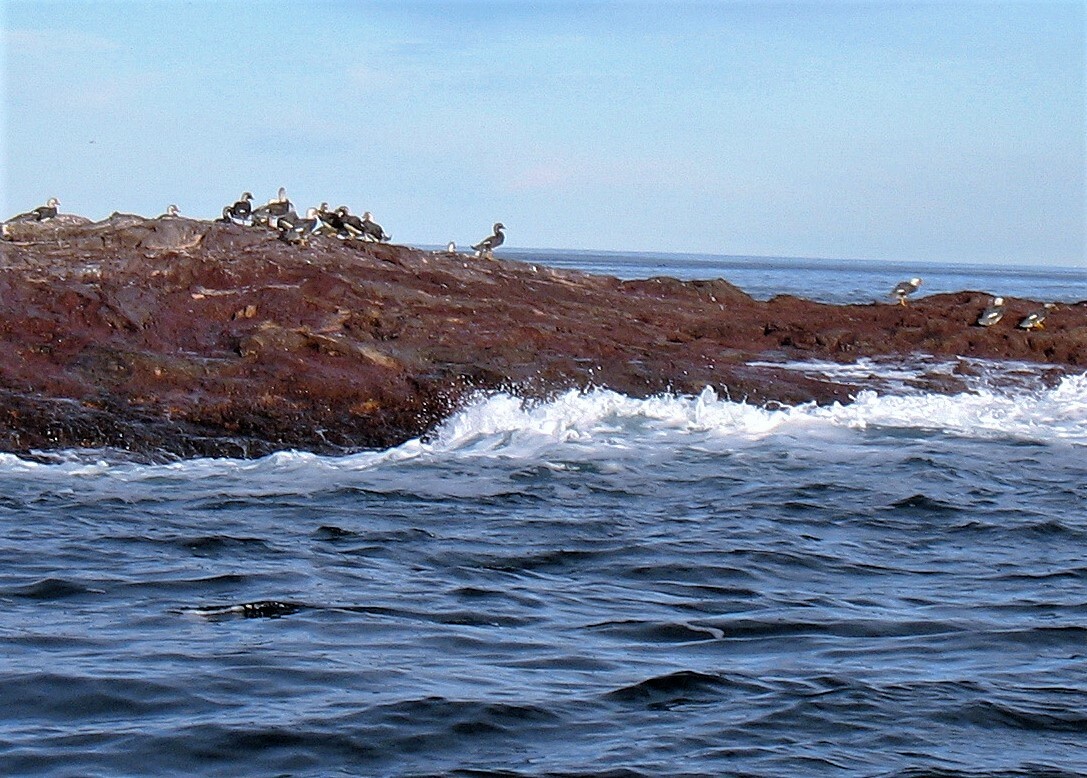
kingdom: Animalia
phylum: Chordata
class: Aves
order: Anseriformes
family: Anatidae
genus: Tachyeres
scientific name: Tachyeres leucocephalus
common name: Chubut steamer duck
